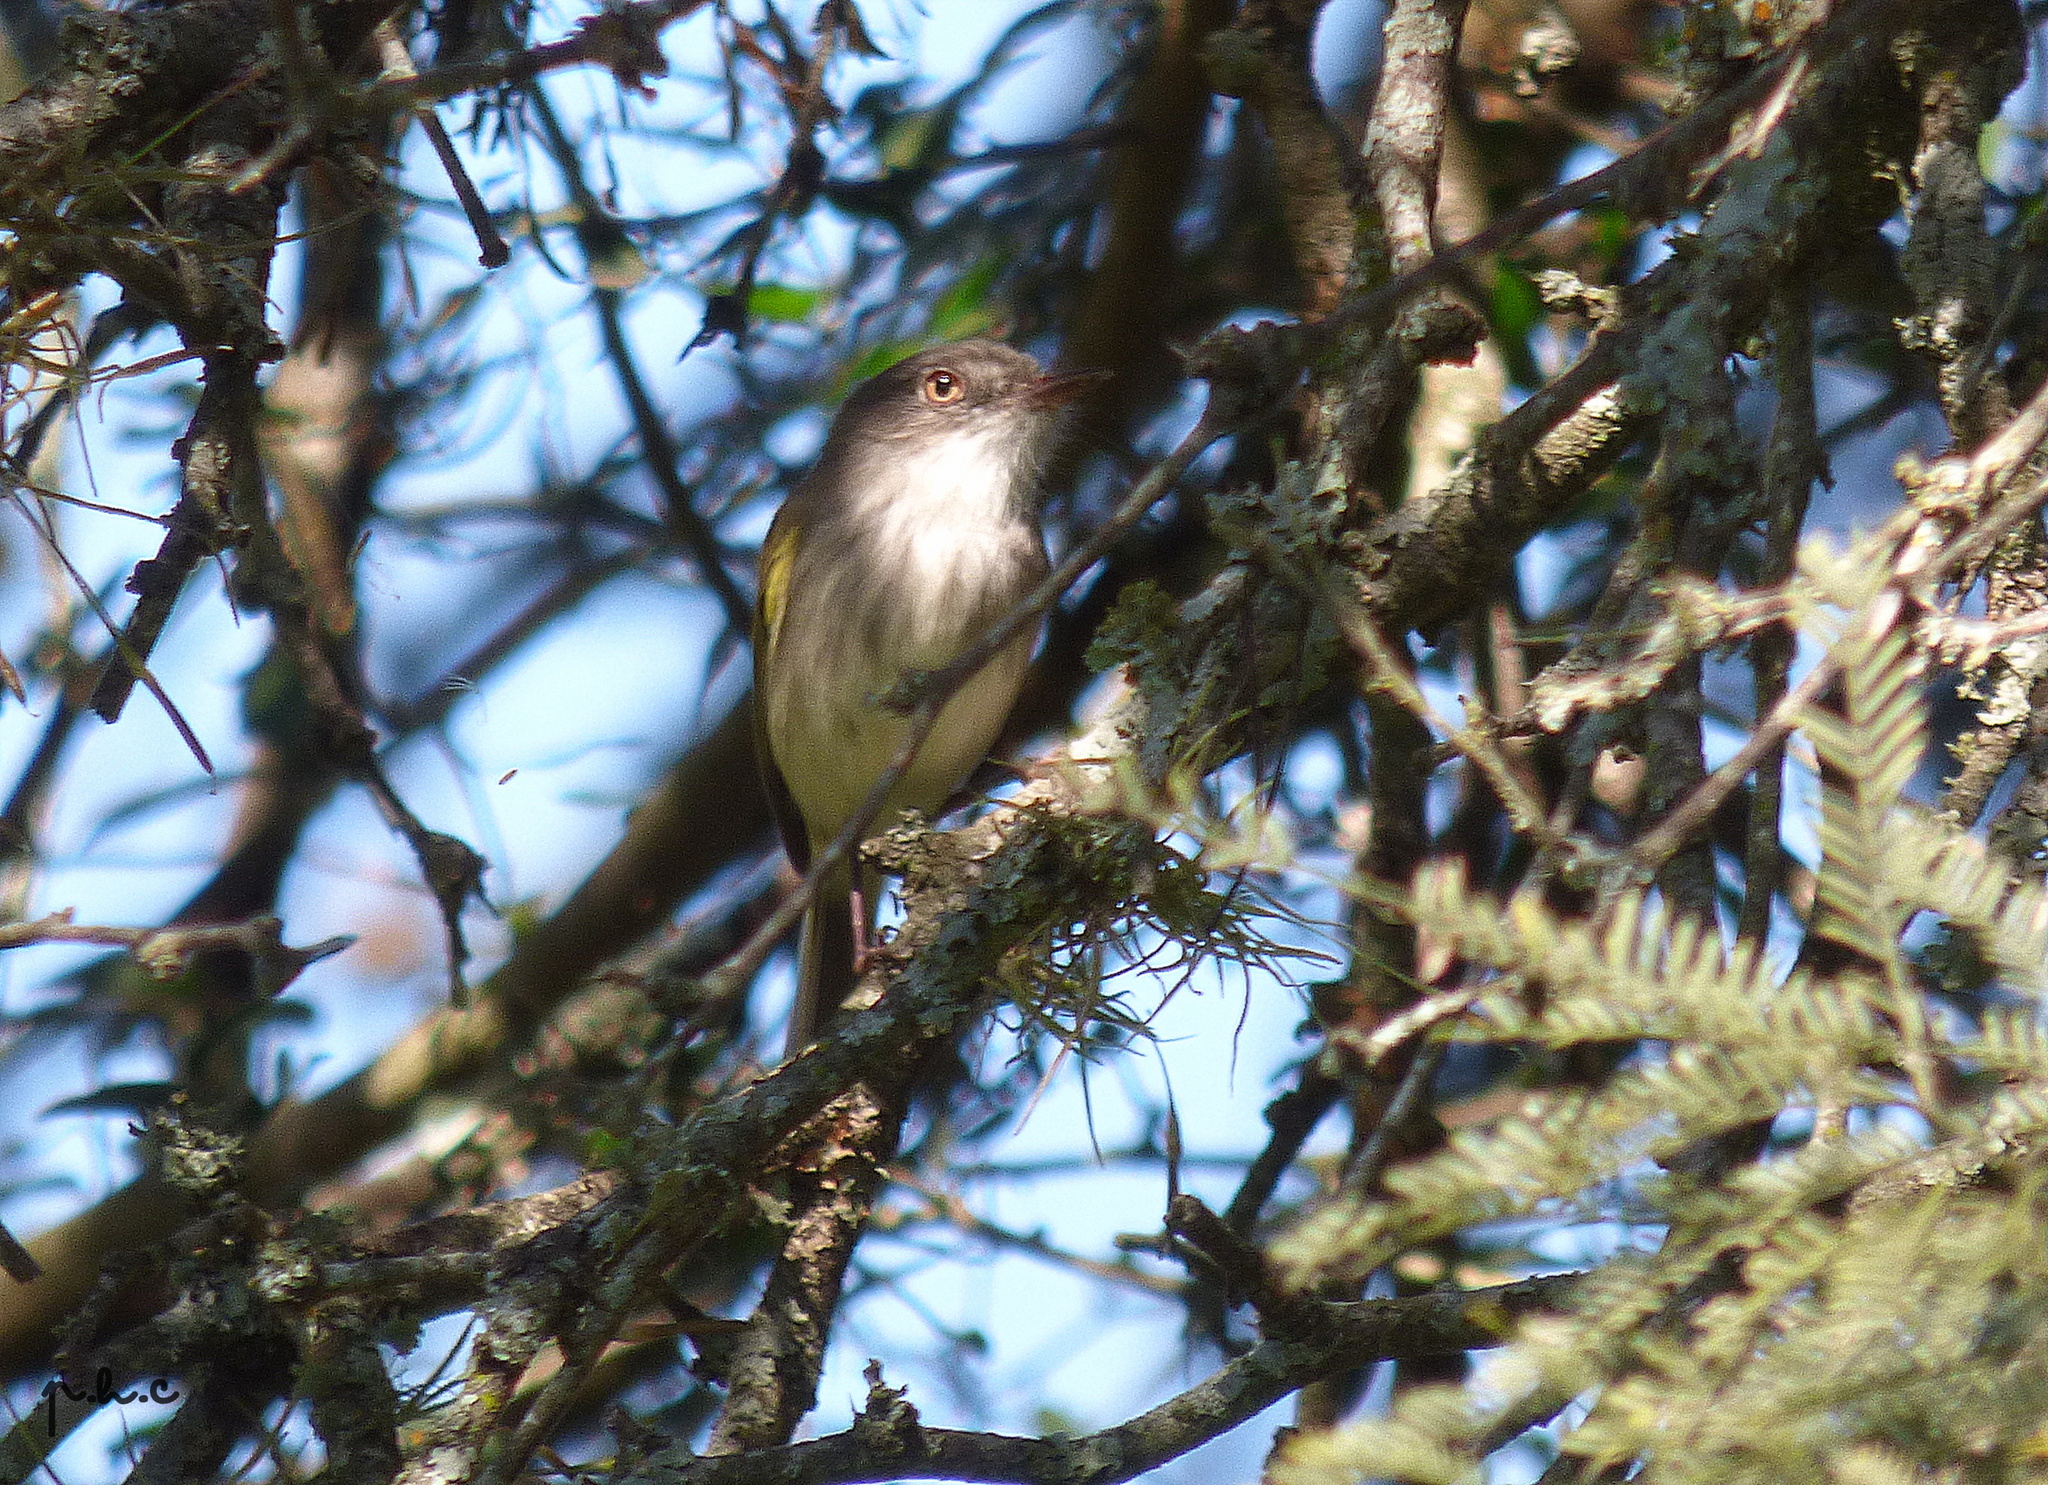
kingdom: Animalia
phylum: Chordata
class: Aves
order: Passeriformes
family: Tyrannidae
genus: Hemitriccus
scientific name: Hemitriccus margaritaceiventer
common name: Pearly-vented tody-tyrant
